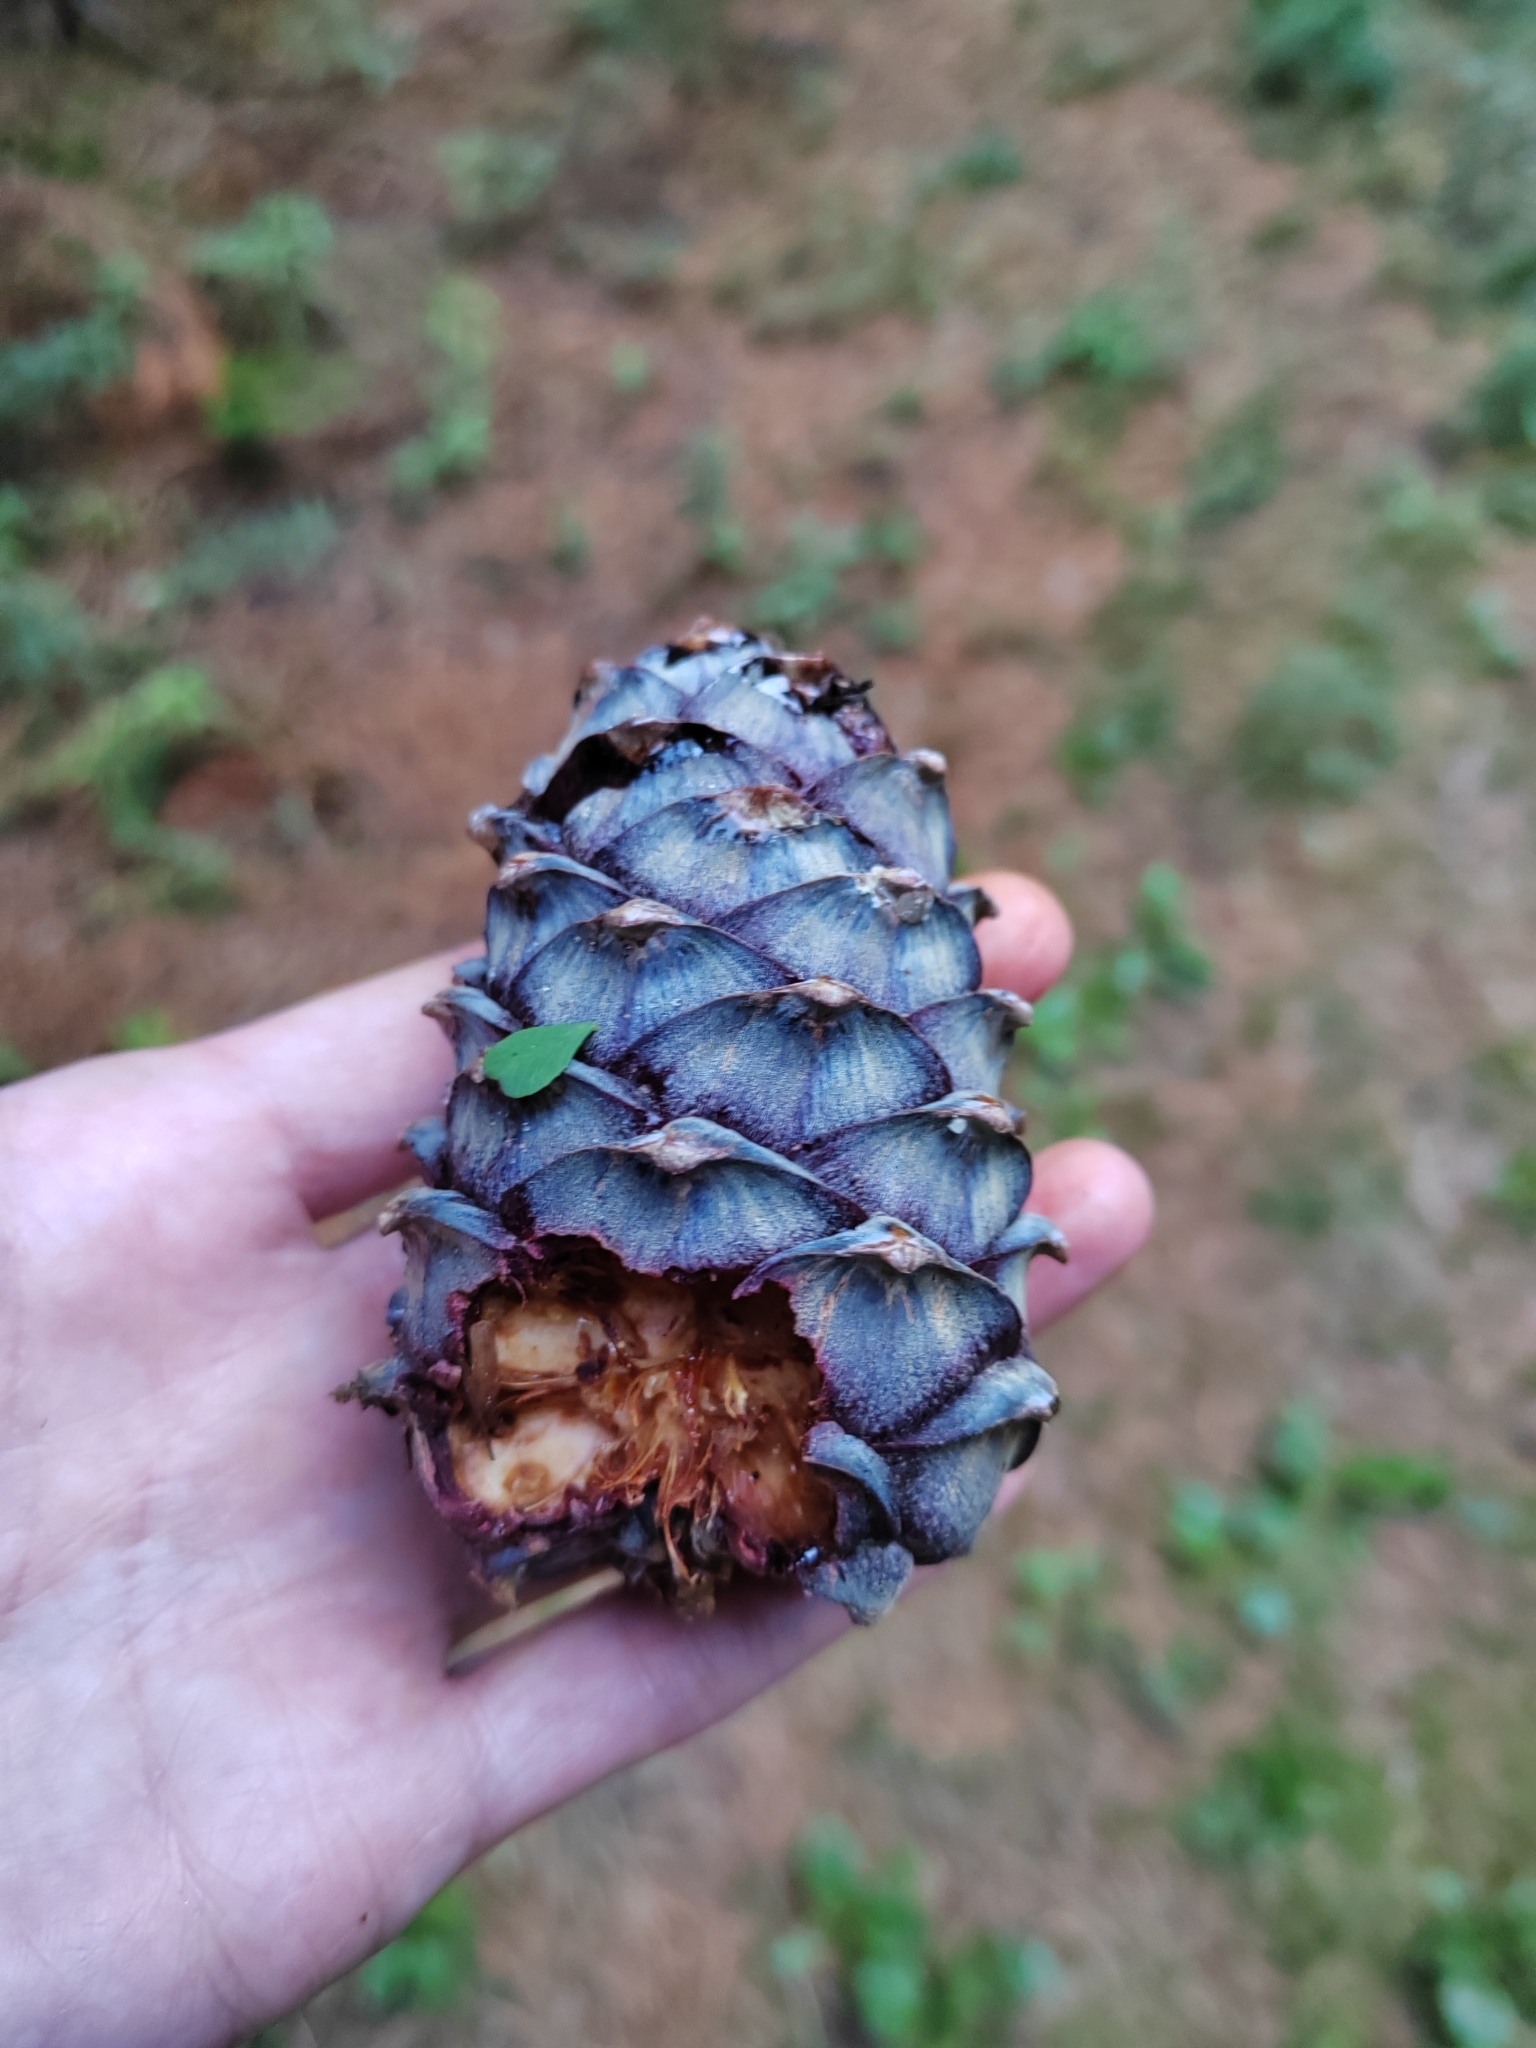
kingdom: Plantae
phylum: Tracheophyta
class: Pinopsida
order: Pinales
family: Pinaceae
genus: Pinus
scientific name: Pinus sibirica
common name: Siberian pine
